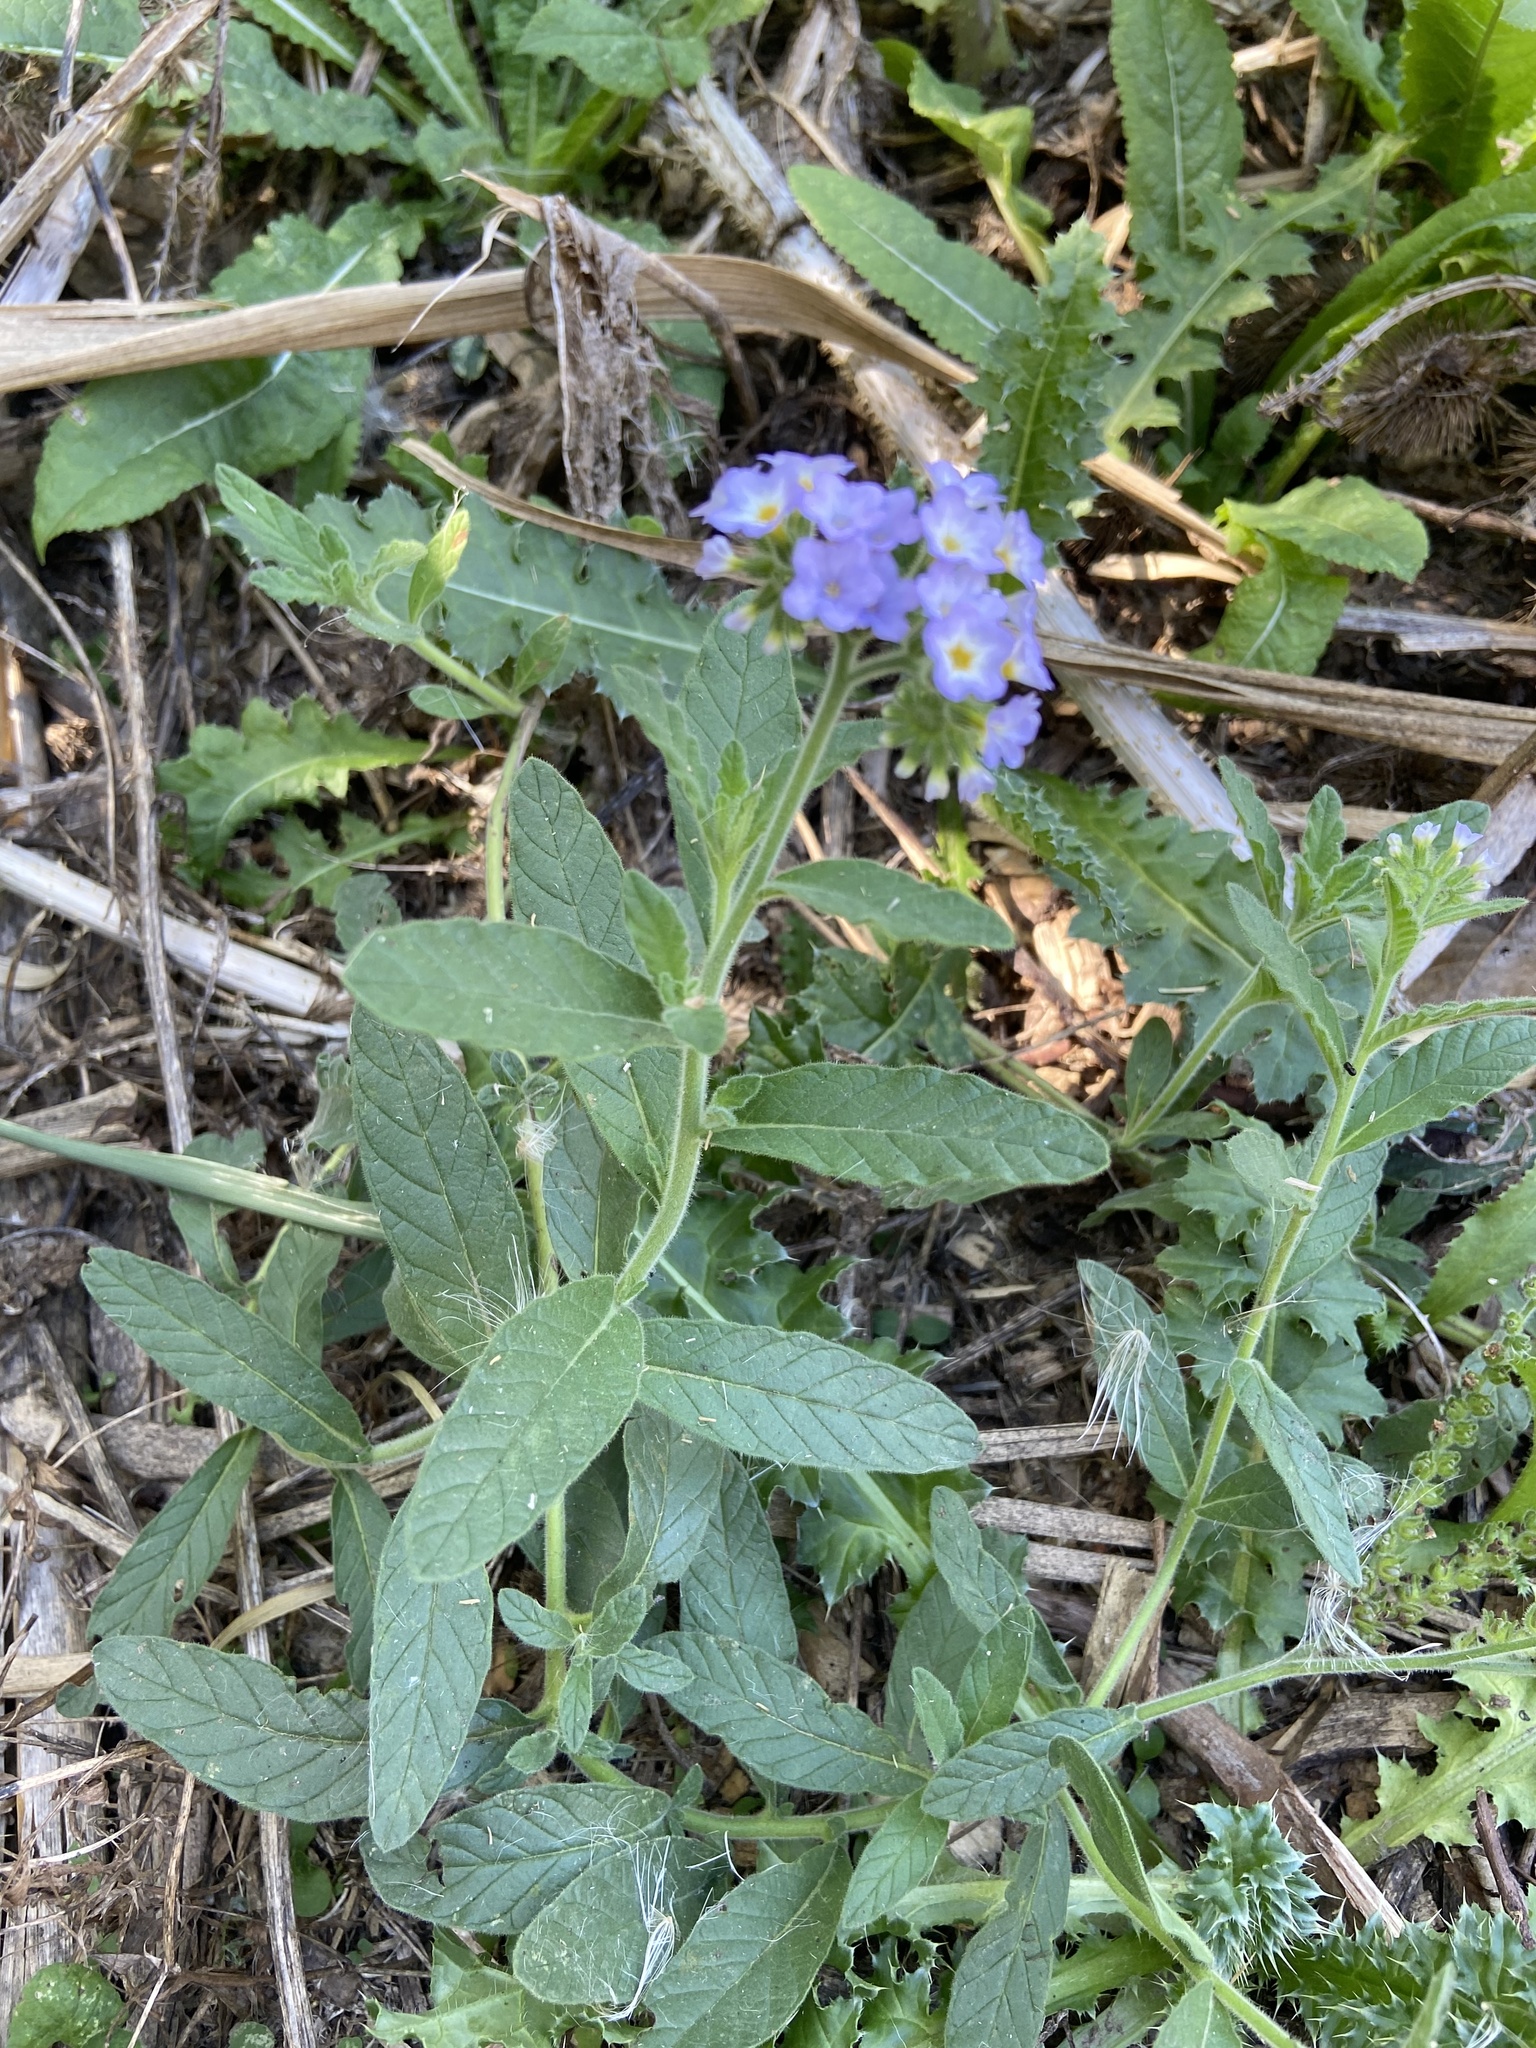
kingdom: Plantae
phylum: Tracheophyta
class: Magnoliopsida
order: Boraginales
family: Heliotropiaceae
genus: Heliotropium
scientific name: Heliotropium amplexicaule
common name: Clasping heliotrope
